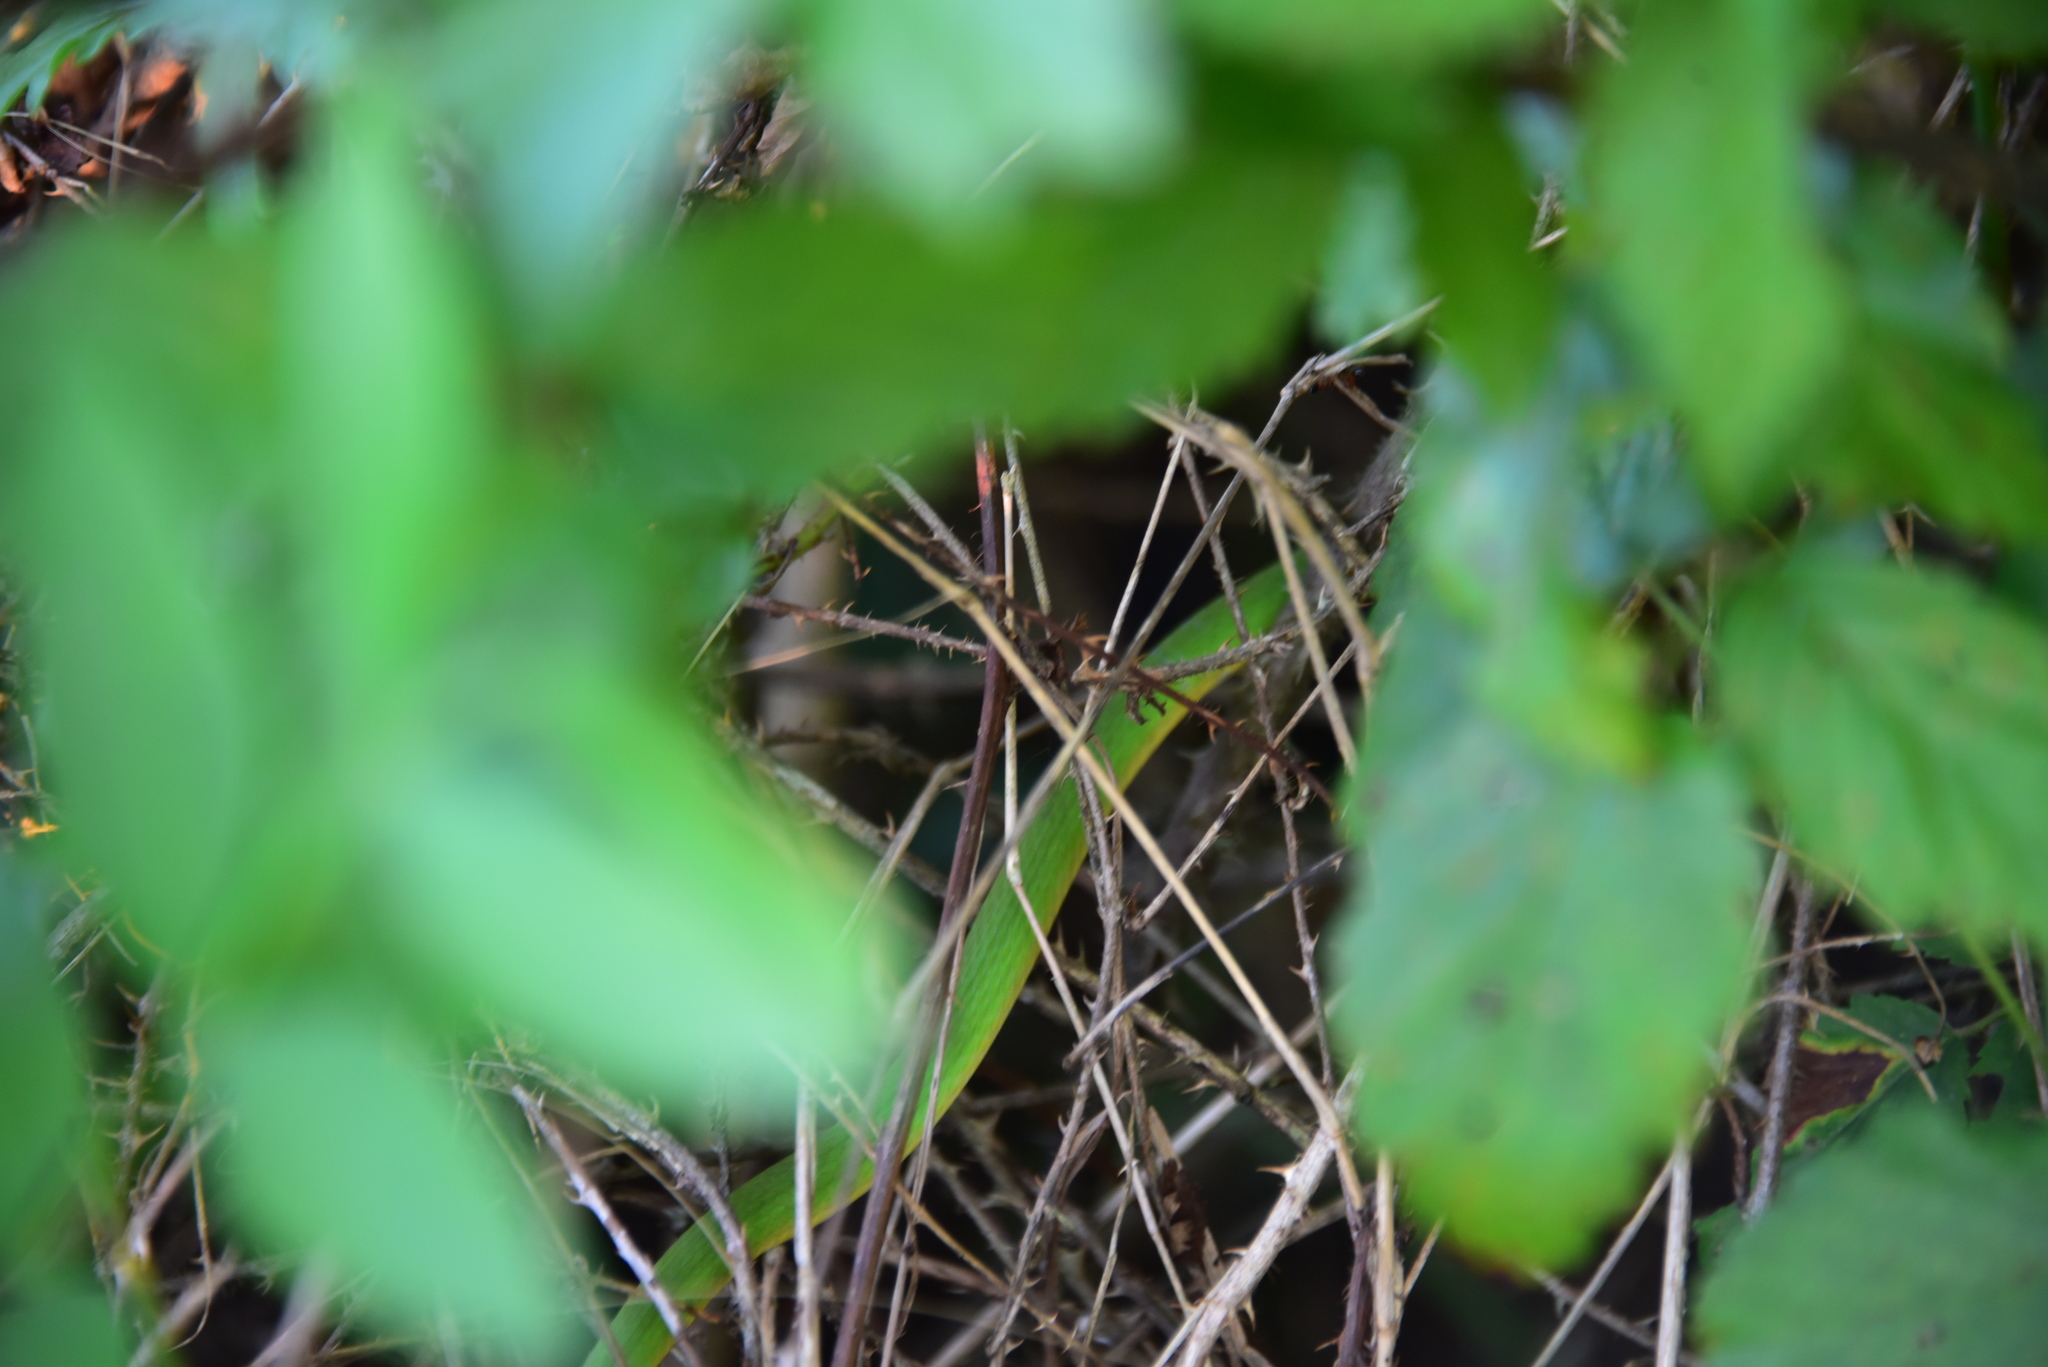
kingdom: Animalia
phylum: Chordata
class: Squamata
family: Colubridae
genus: Opheodrys
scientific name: Opheodrys aestivus
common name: Rough greensnake
